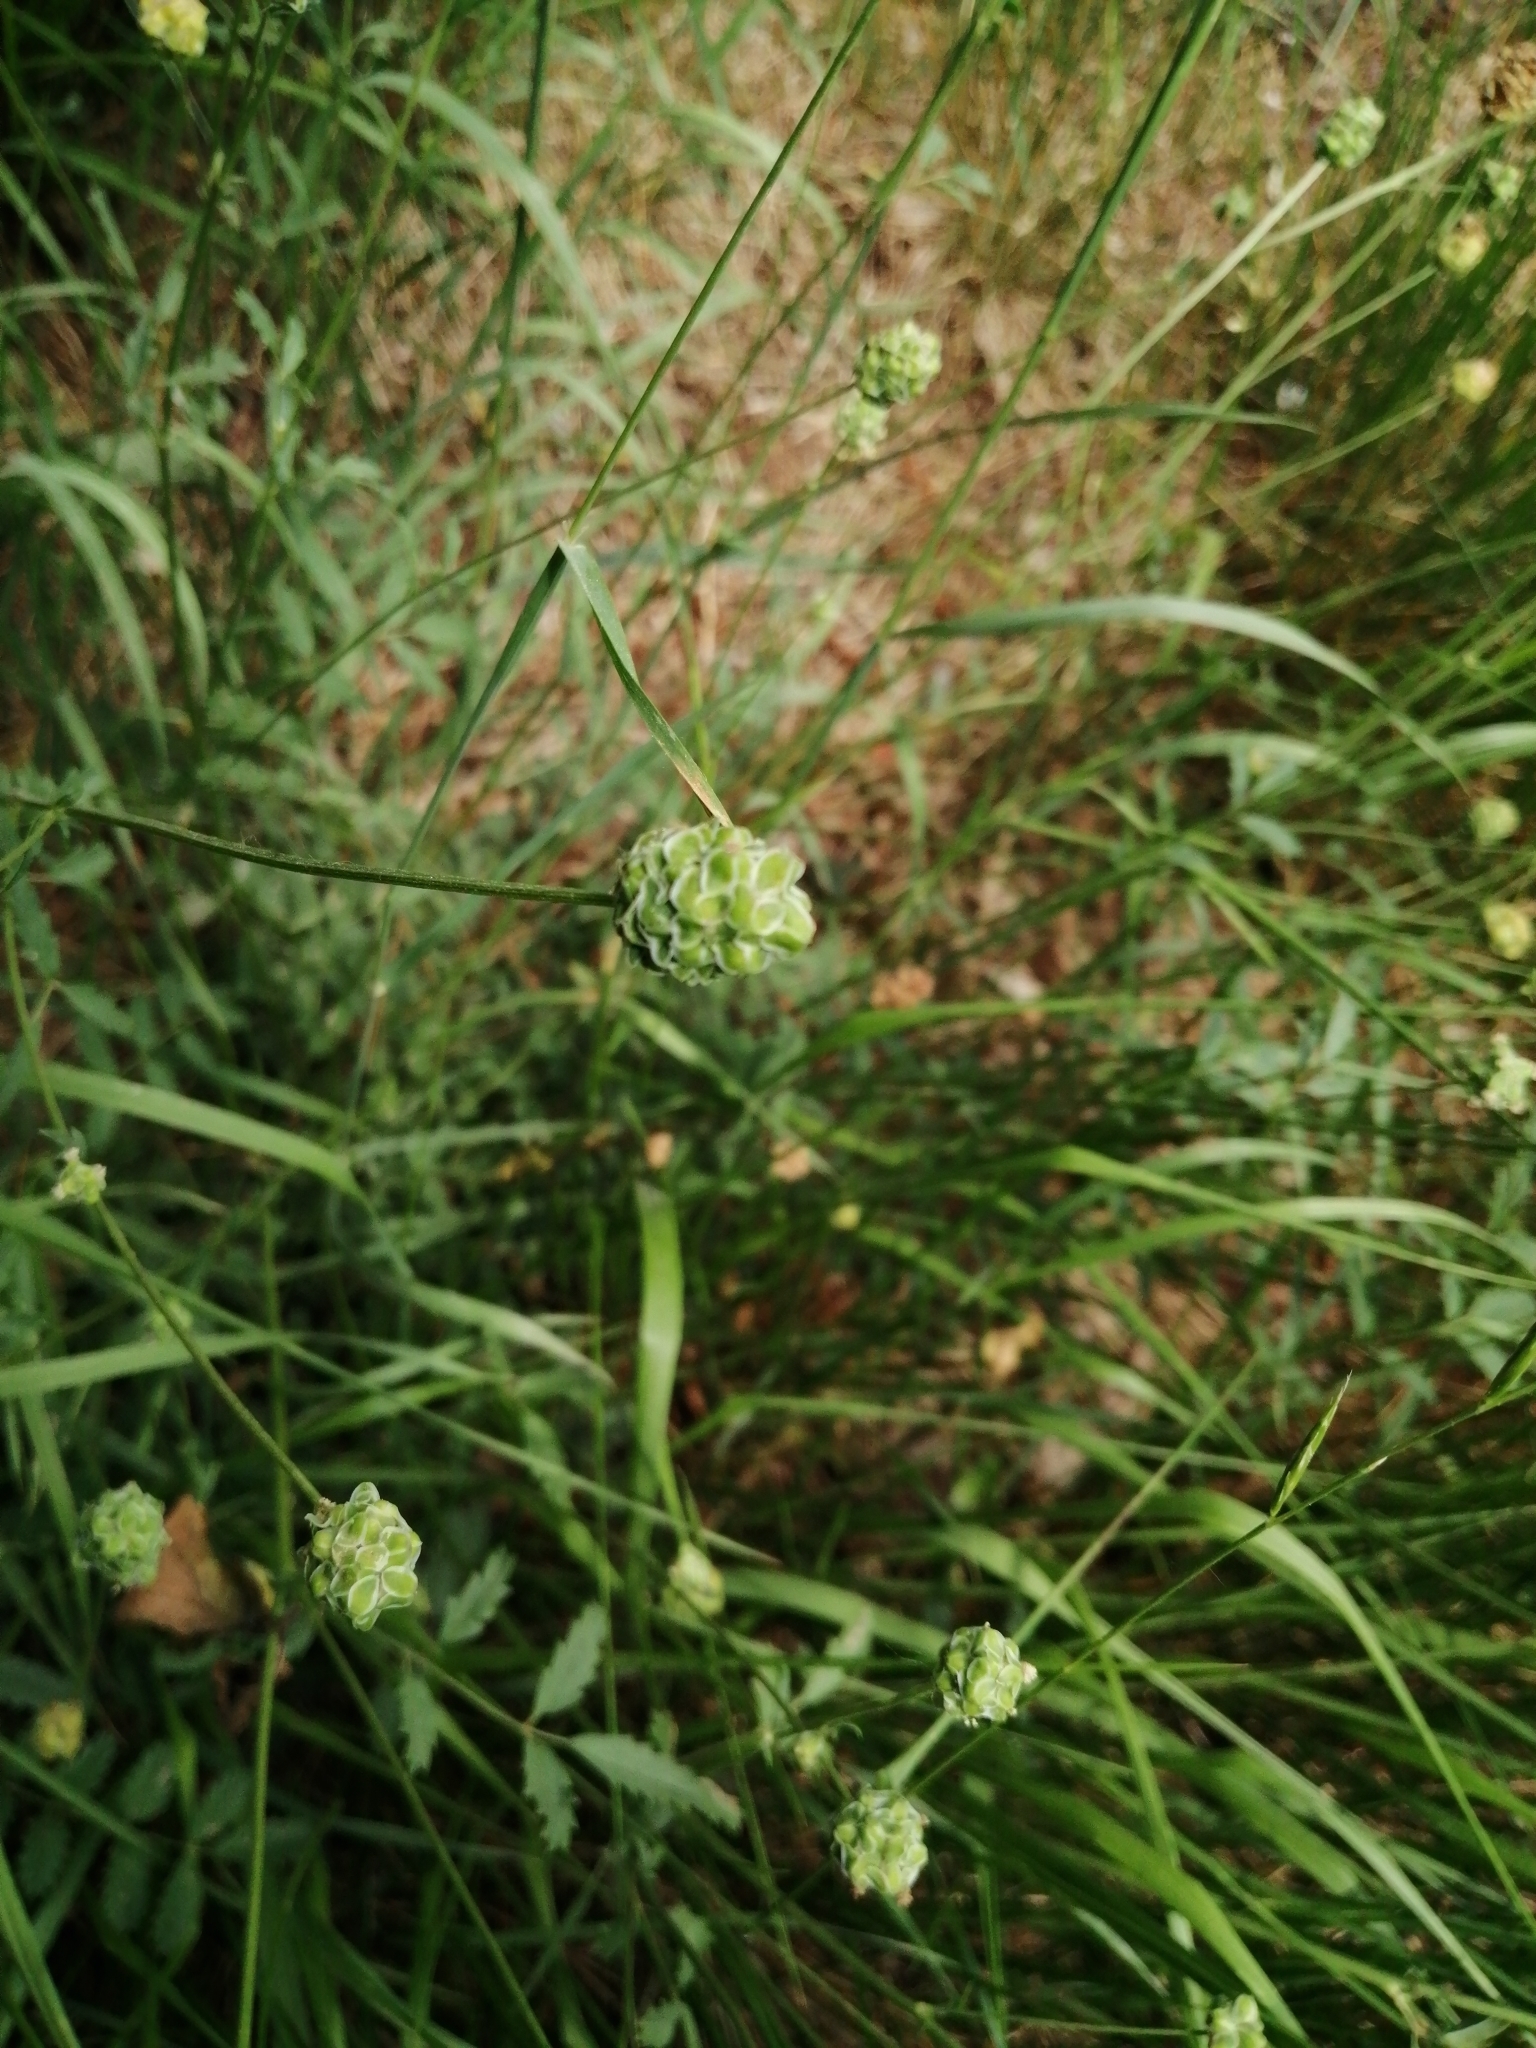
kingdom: Plantae
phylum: Tracheophyta
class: Magnoliopsida
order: Rosales
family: Rosaceae
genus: Poterium
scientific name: Poterium sanguisorba
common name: Salad burnet
